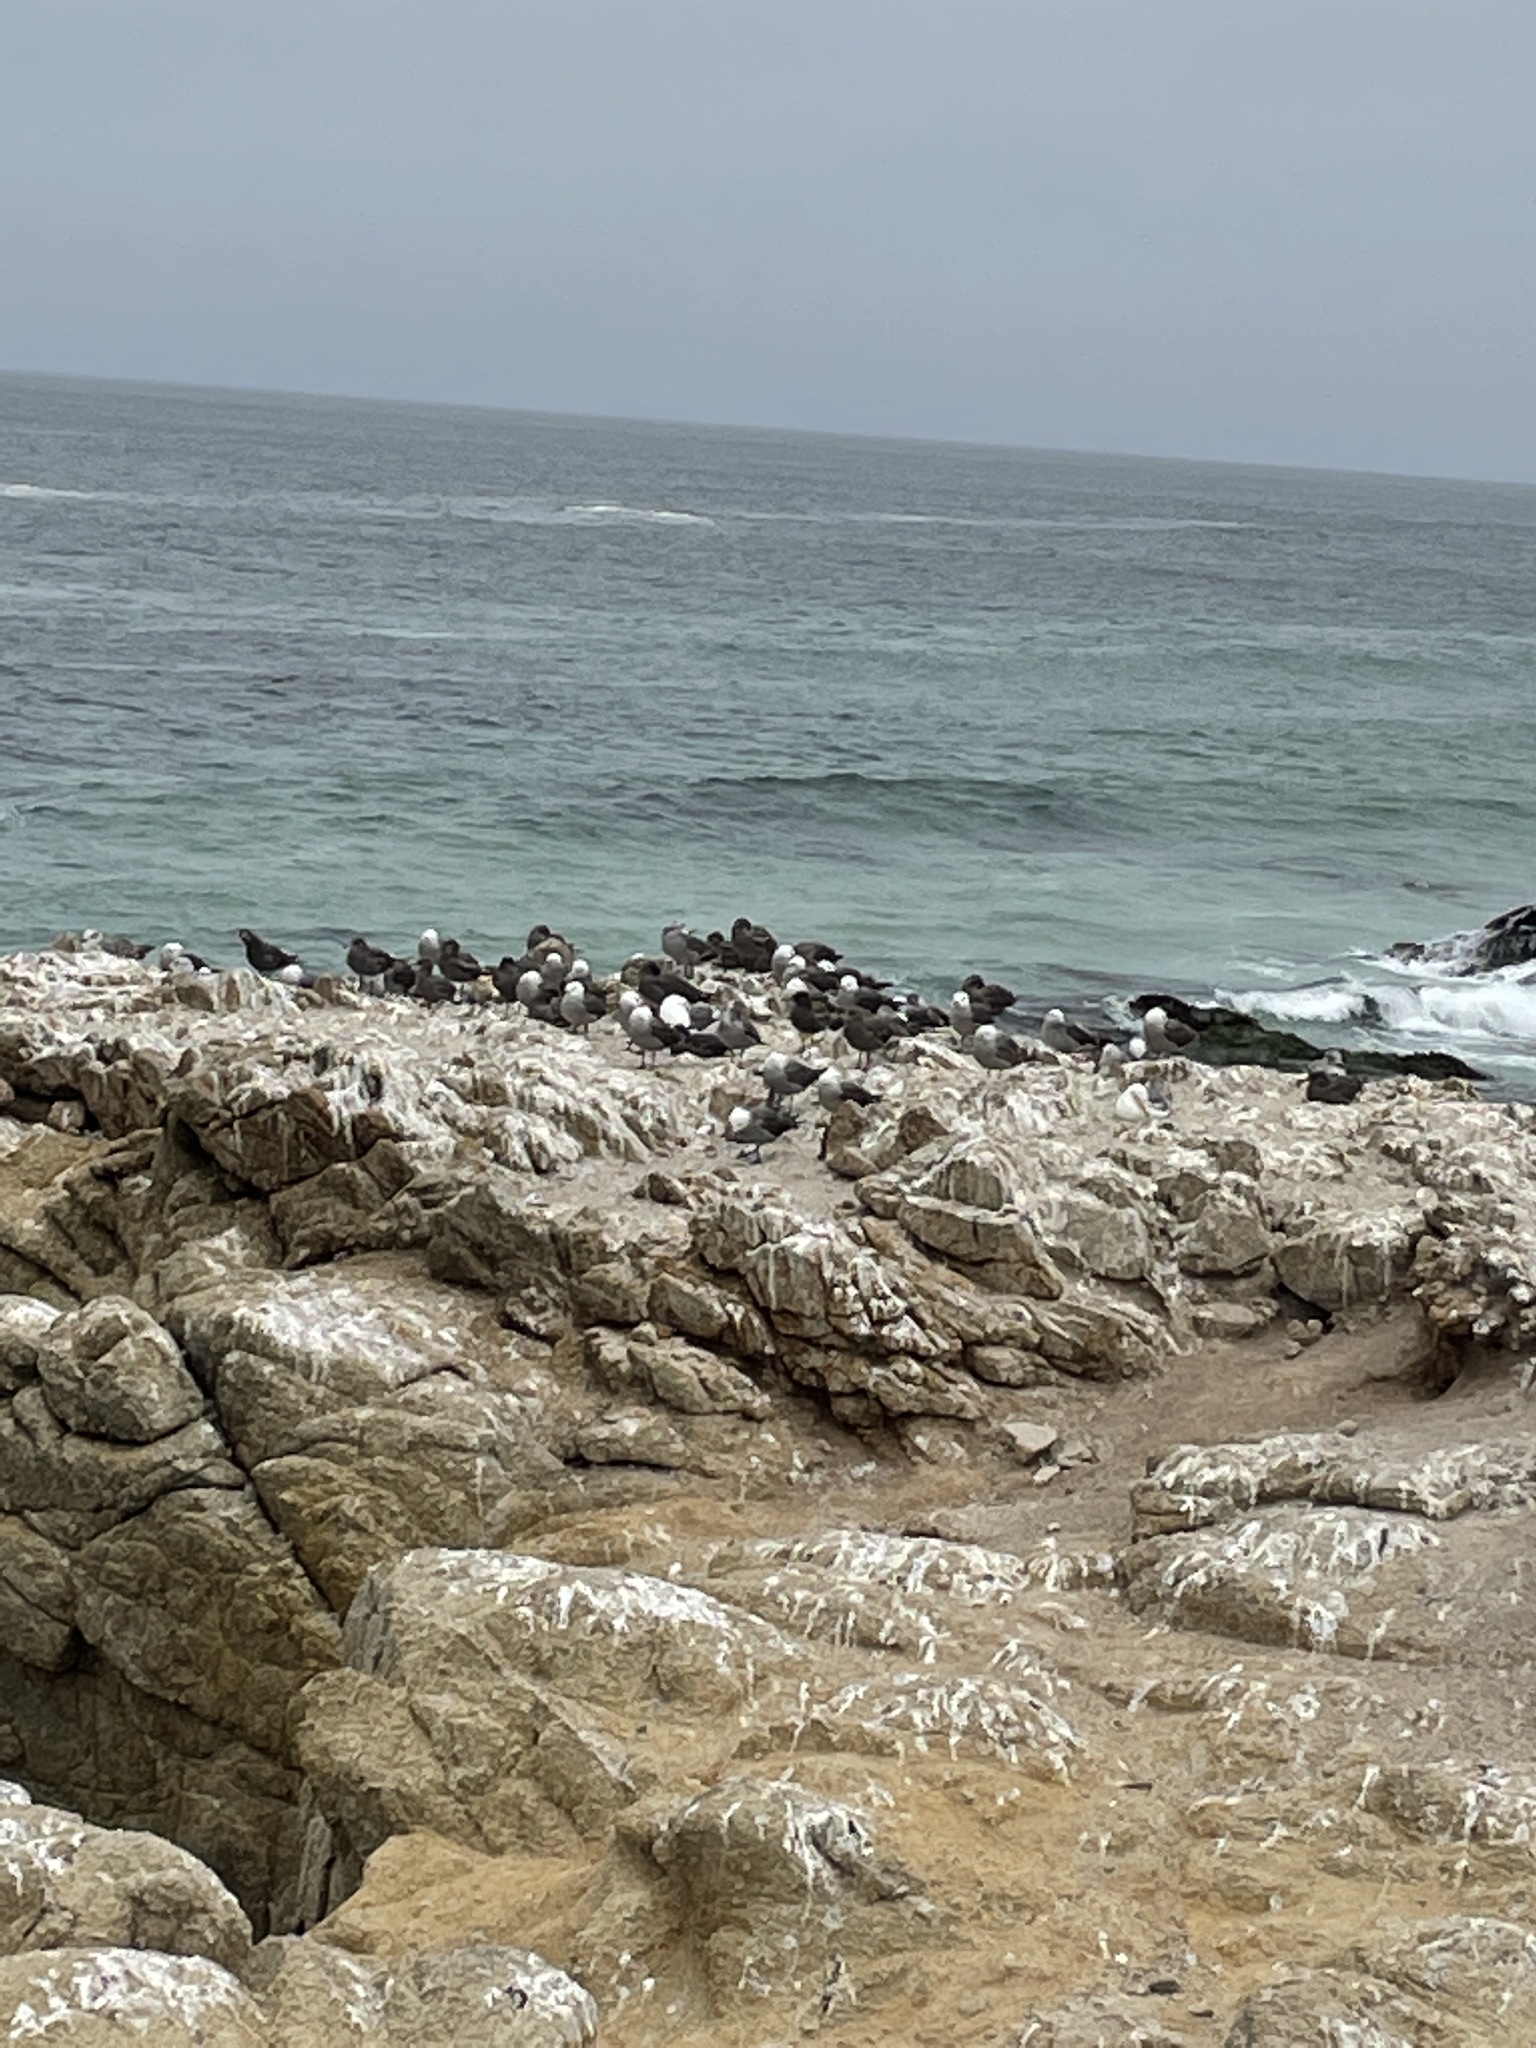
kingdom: Animalia
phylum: Chordata
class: Aves
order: Charadriiformes
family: Laridae
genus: Larus
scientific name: Larus heermanni
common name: Heermann's gull
